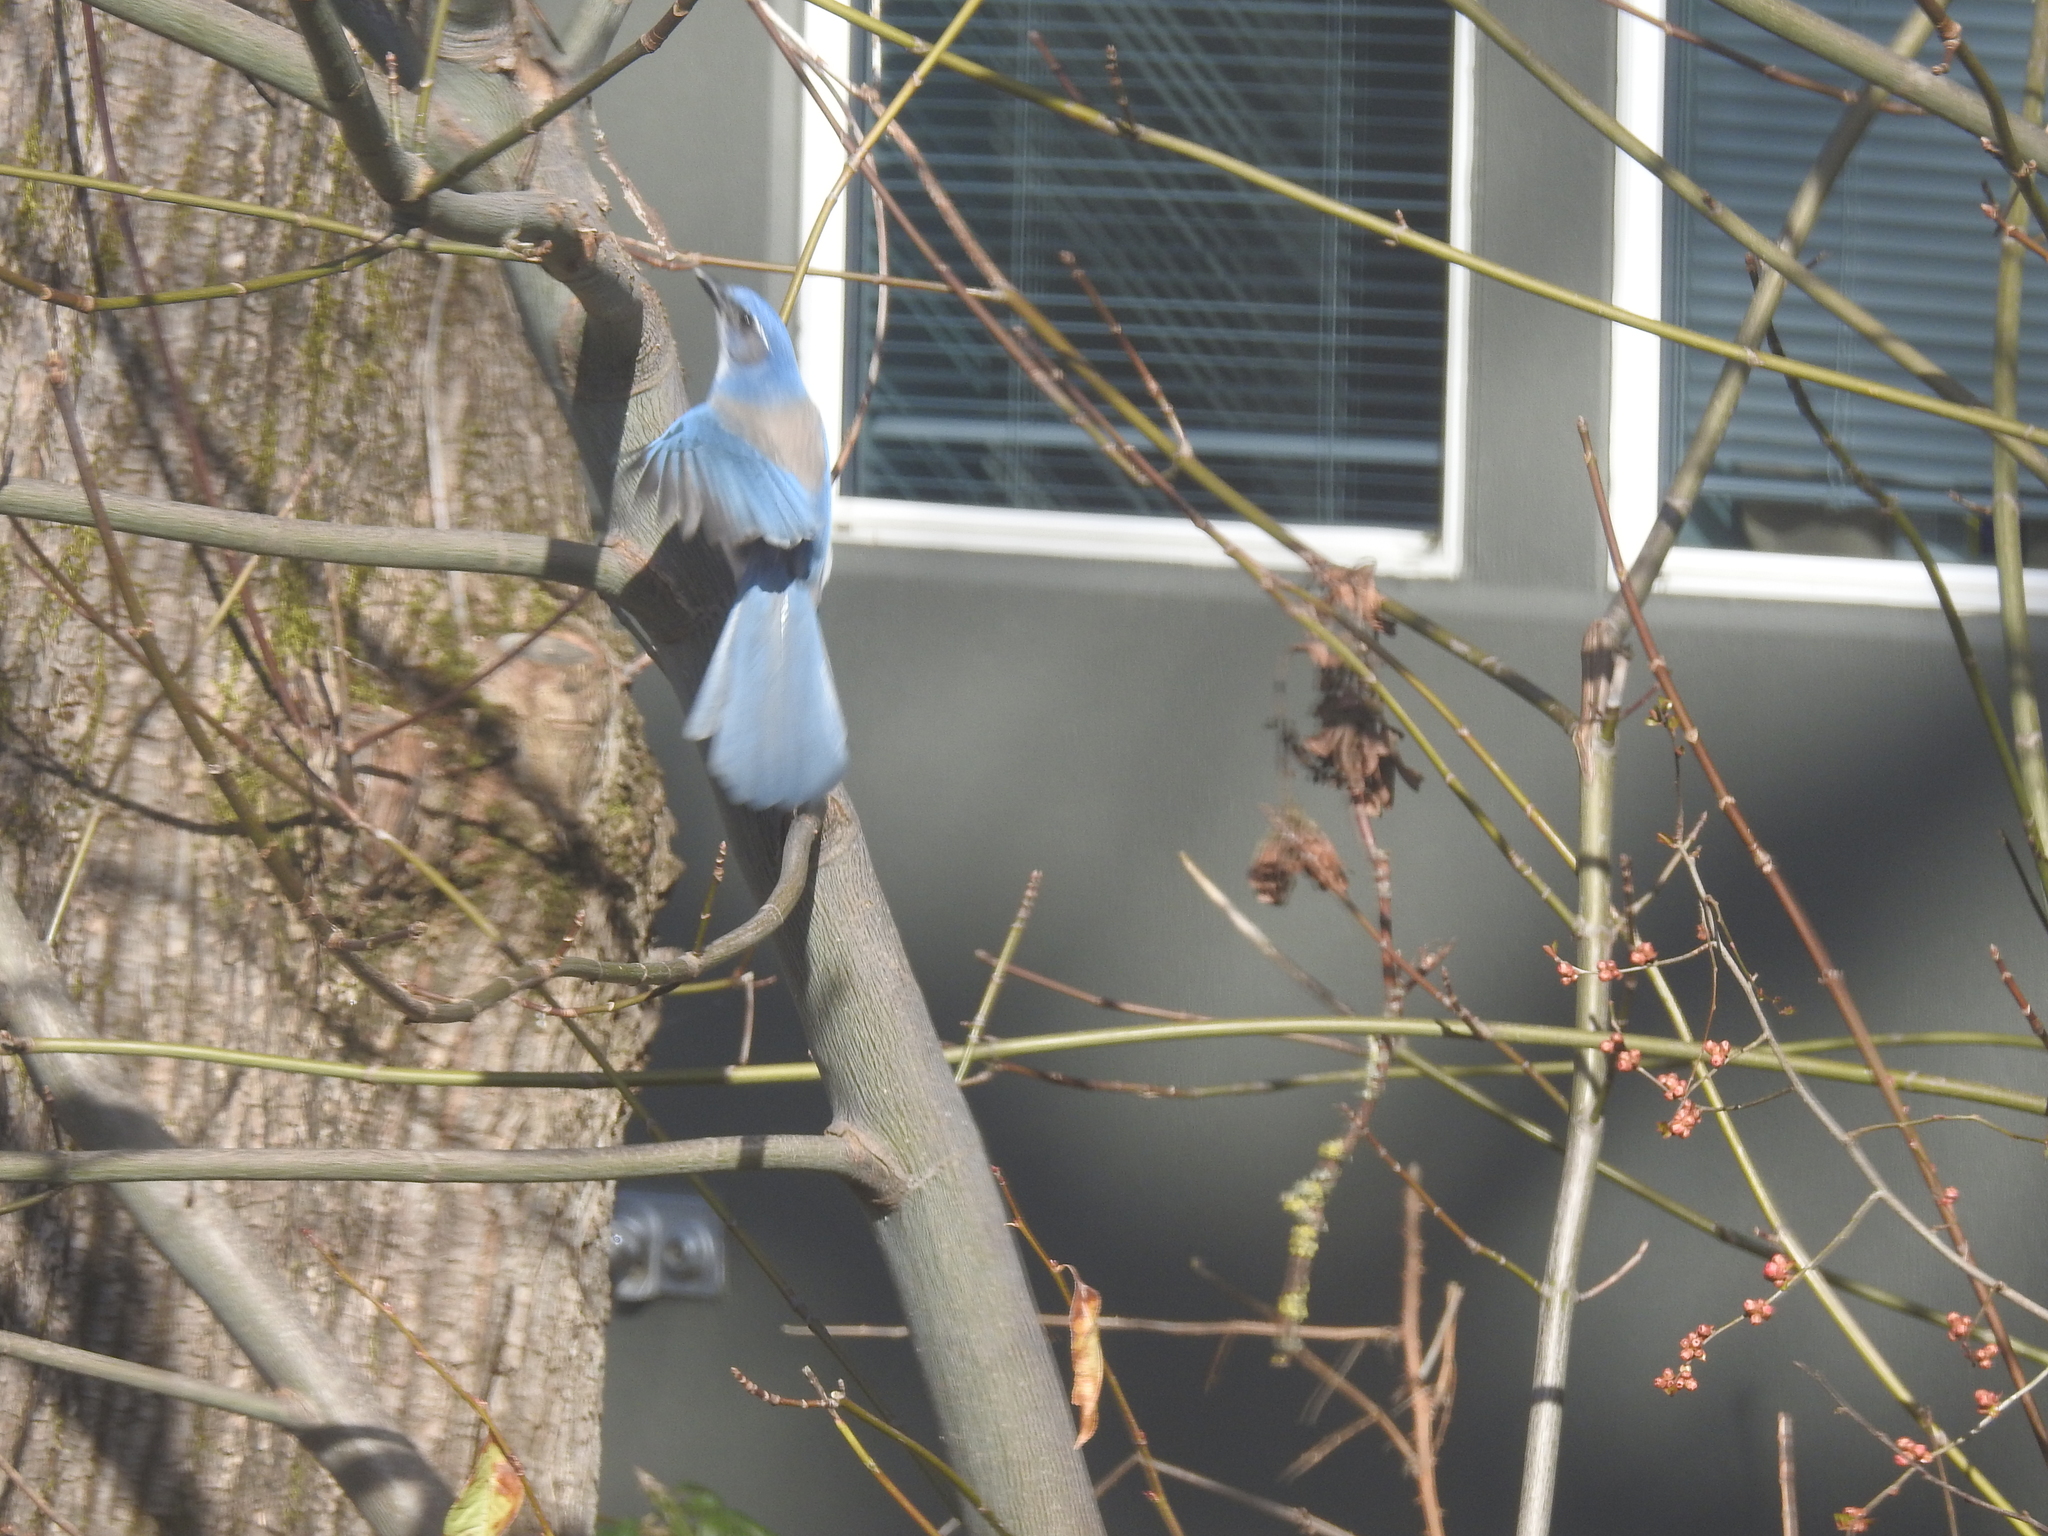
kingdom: Animalia
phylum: Chordata
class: Aves
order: Passeriformes
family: Corvidae
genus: Aphelocoma
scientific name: Aphelocoma californica
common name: California scrub-jay
